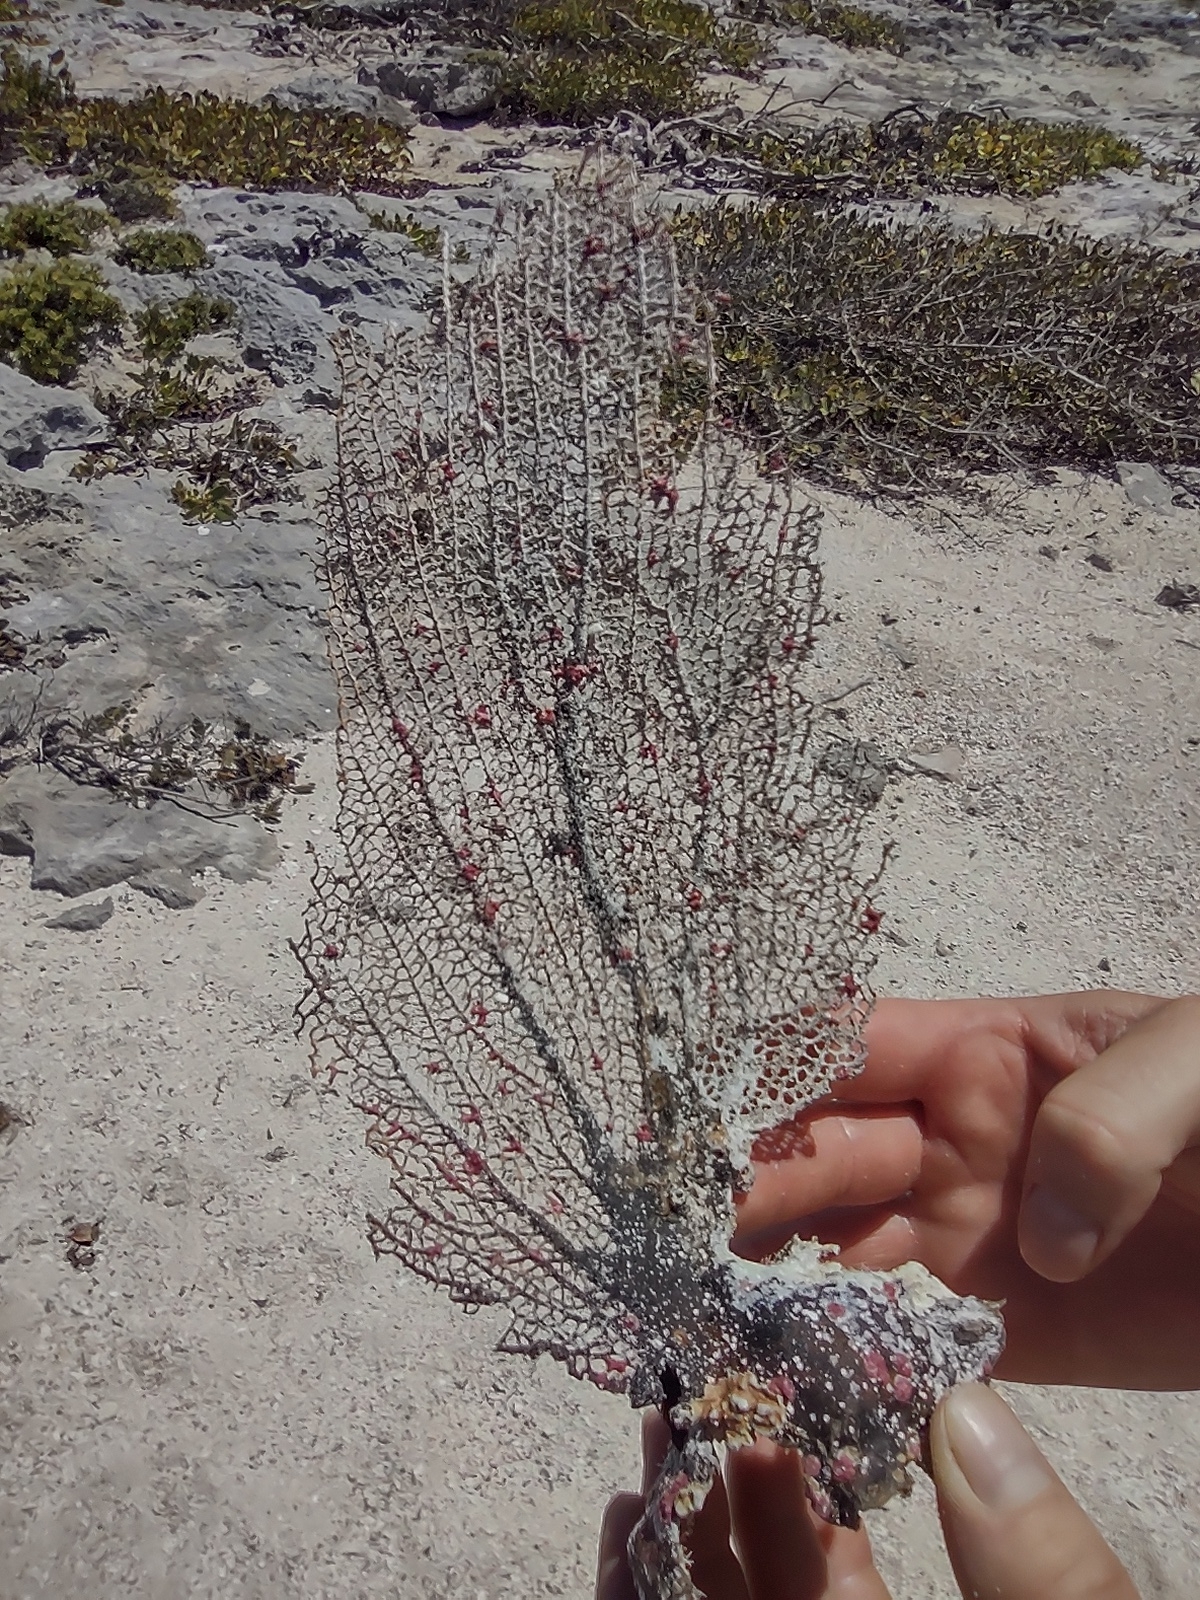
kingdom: Animalia
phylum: Cnidaria
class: Anthozoa
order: Malacalcyonacea
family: Gorgoniidae
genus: Gorgonia
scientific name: Gorgonia ventalina
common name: Common sea fan
